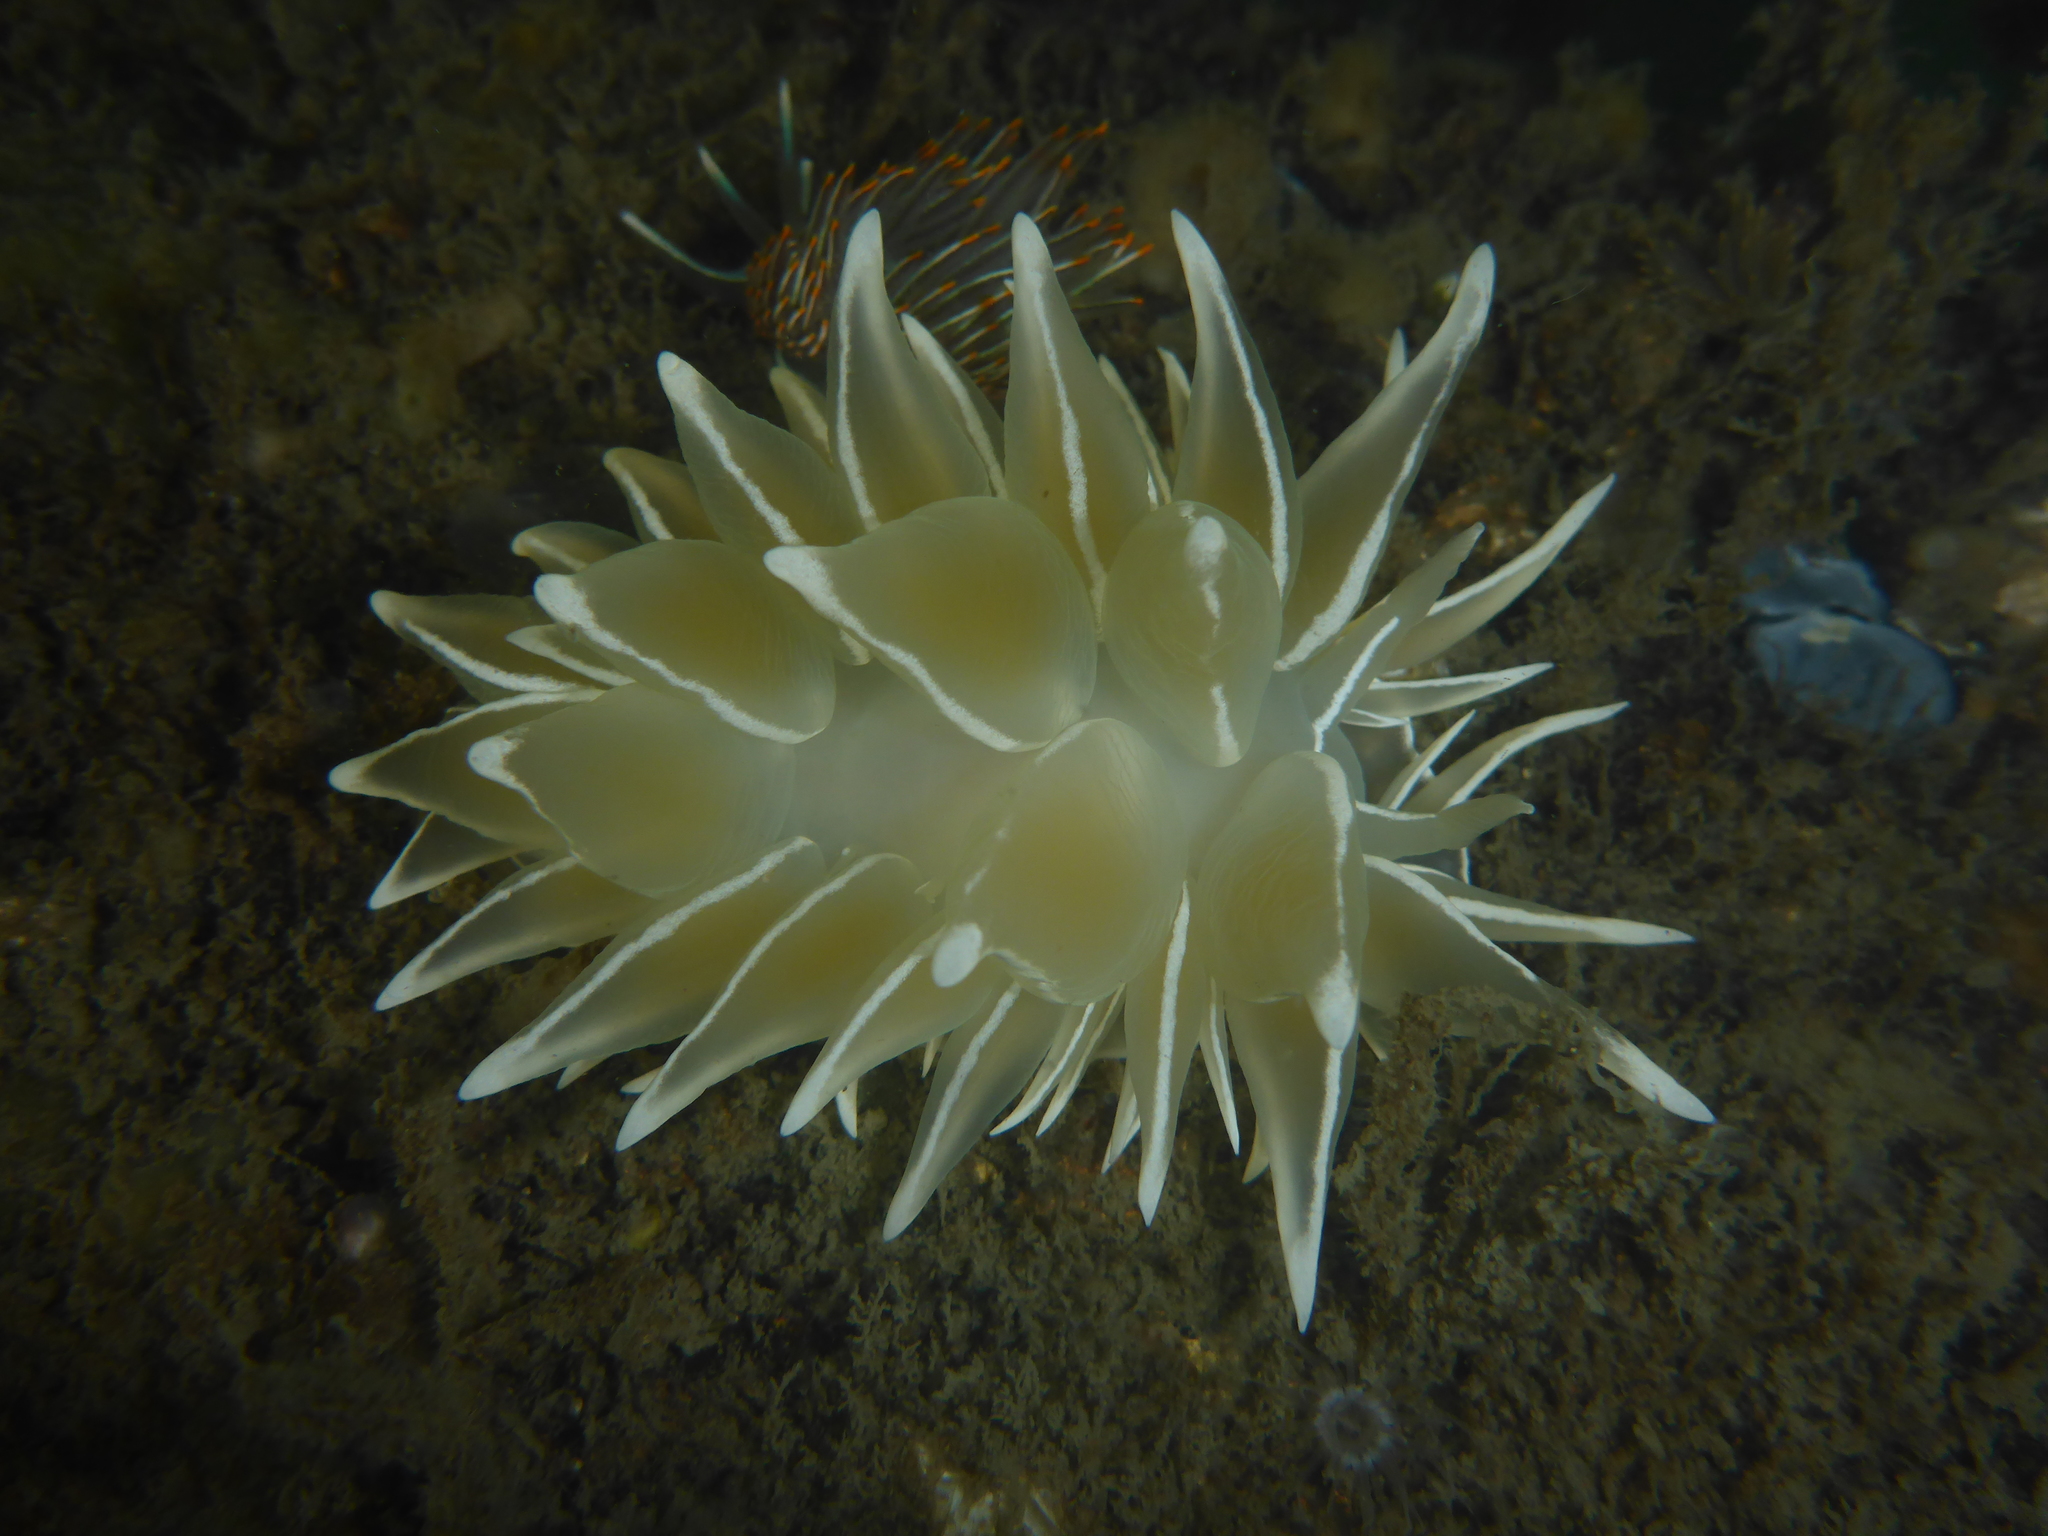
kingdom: Animalia
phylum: Mollusca
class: Gastropoda
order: Nudibranchia
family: Dironidae
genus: Dirona
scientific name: Dirona albolineata
